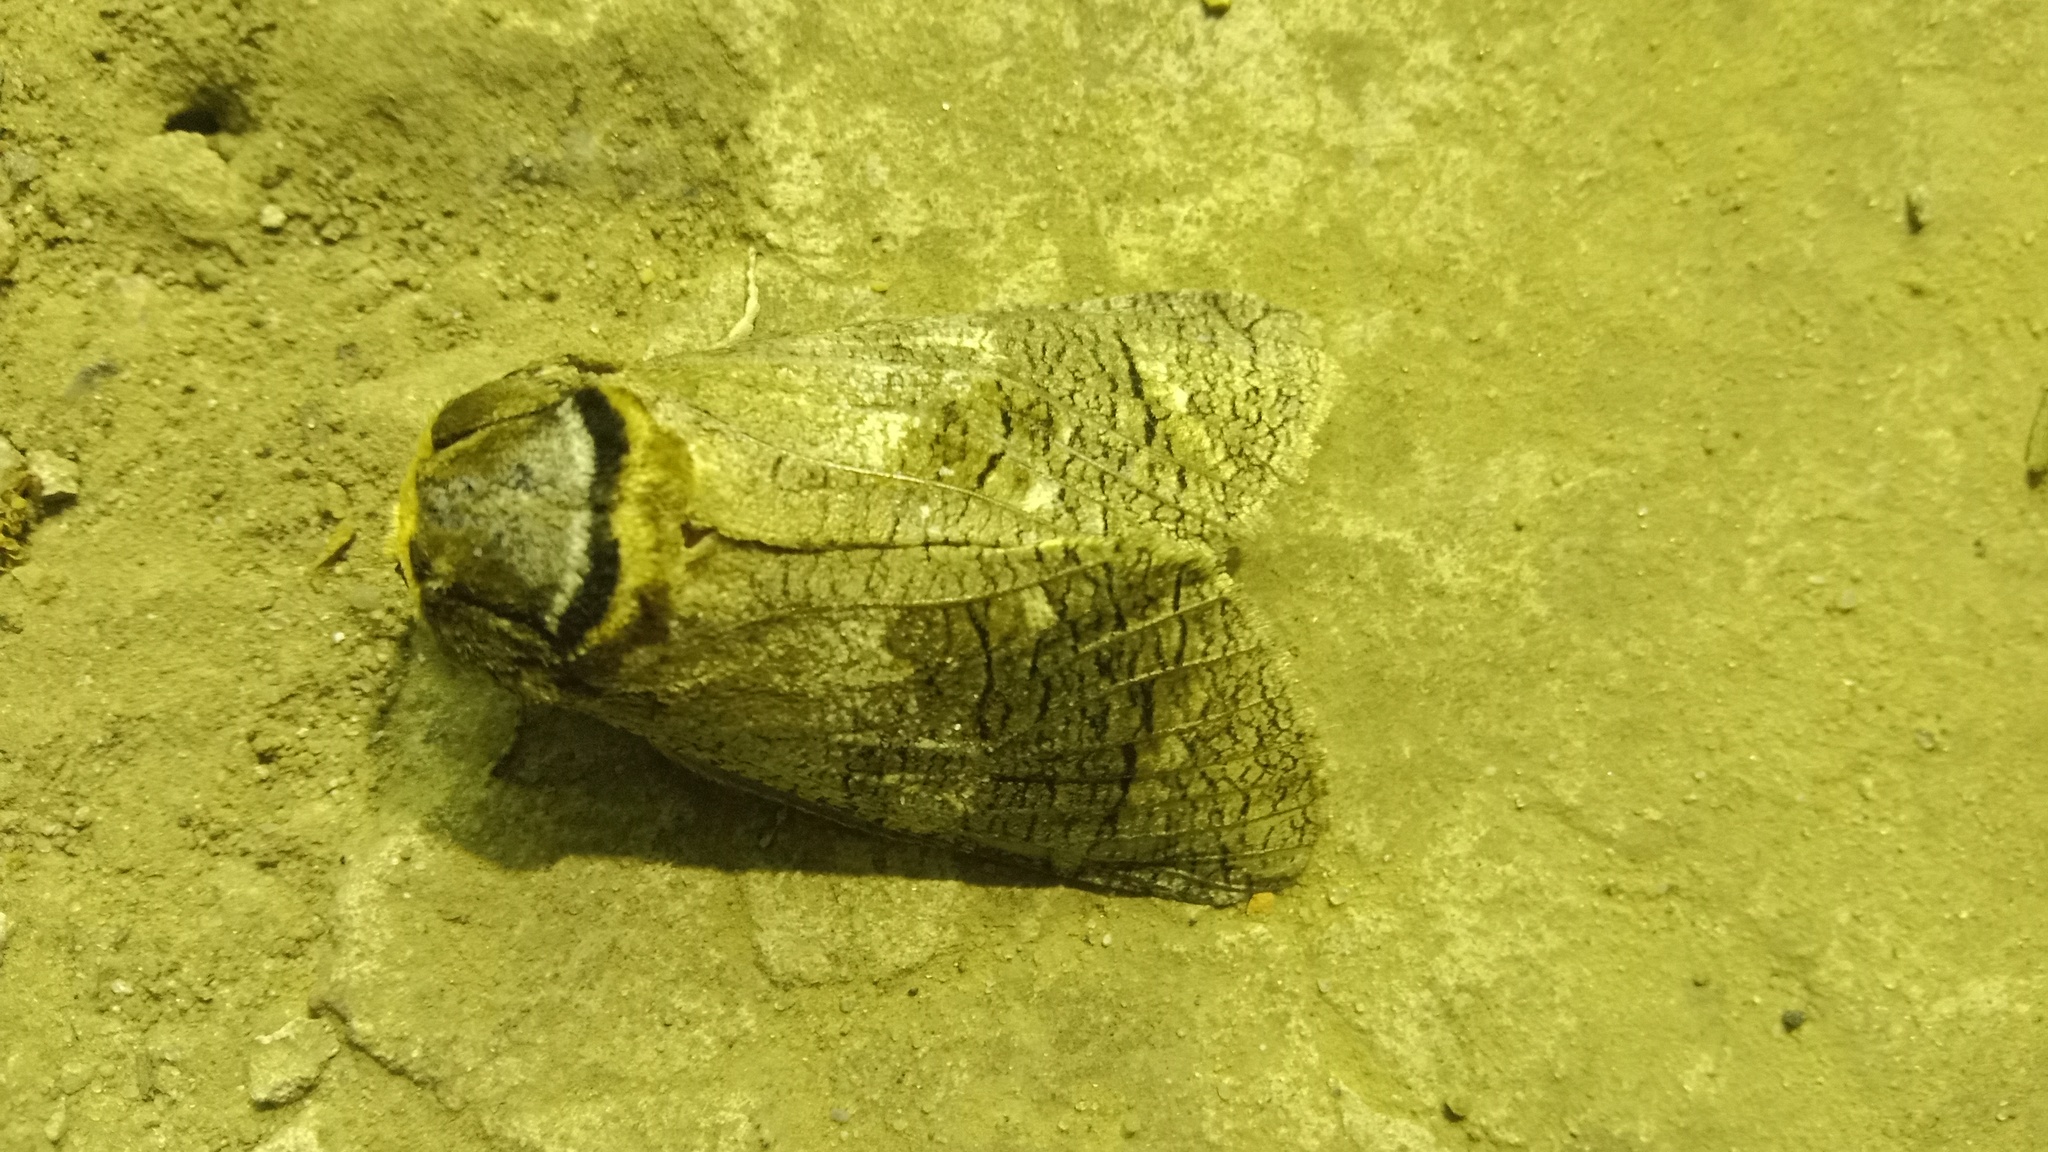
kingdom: Animalia
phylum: Arthropoda
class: Insecta
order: Lepidoptera
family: Cossidae
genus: Cossus
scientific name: Cossus cossus
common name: Goat moth
